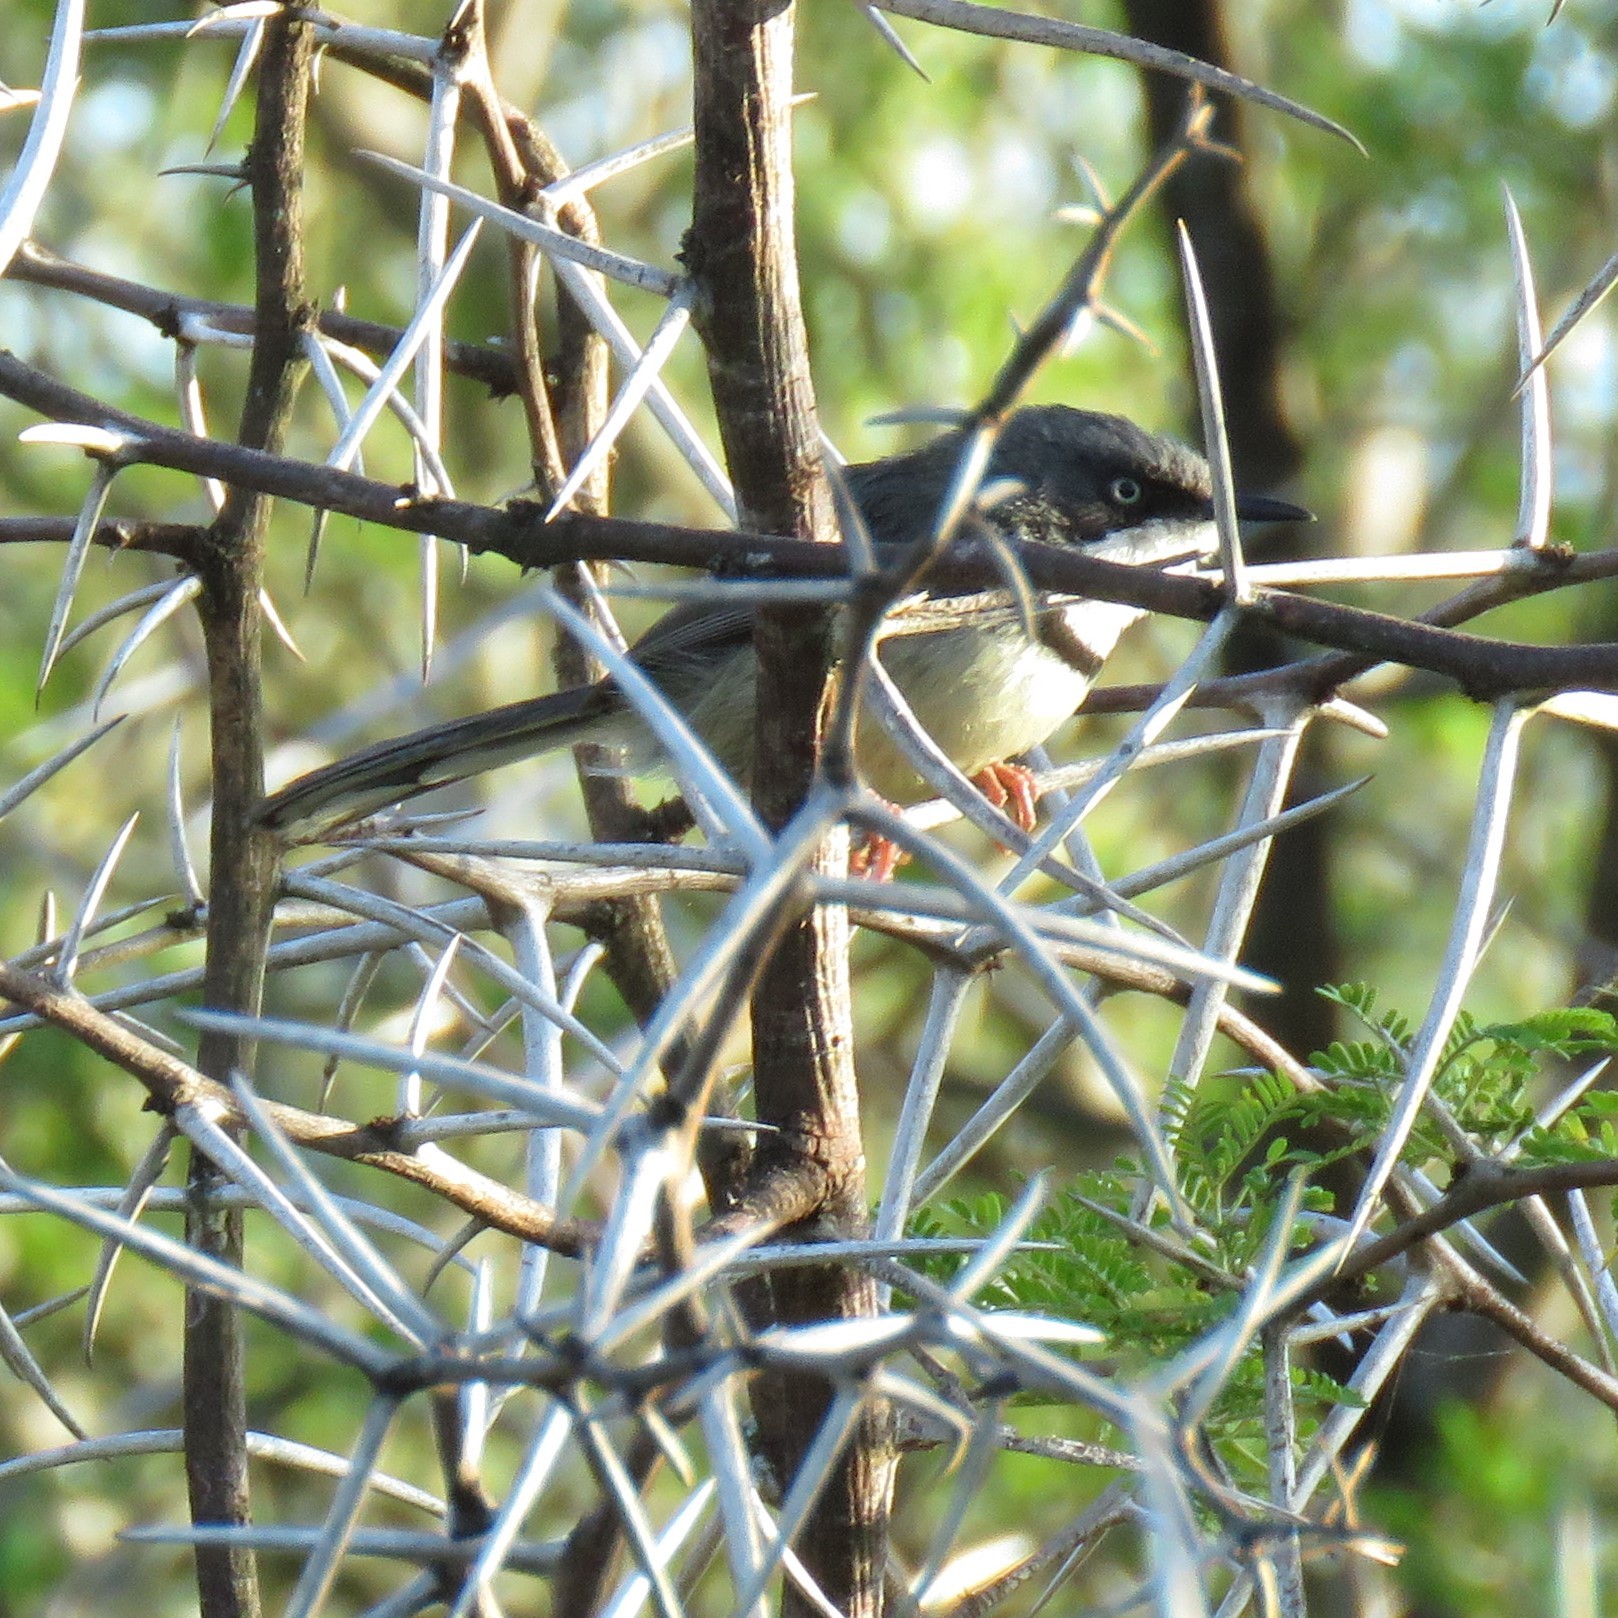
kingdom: Animalia
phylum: Chordata
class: Aves
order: Passeriformes
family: Cisticolidae
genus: Apalis
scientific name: Apalis thoracica
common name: Bar-throated apalis
